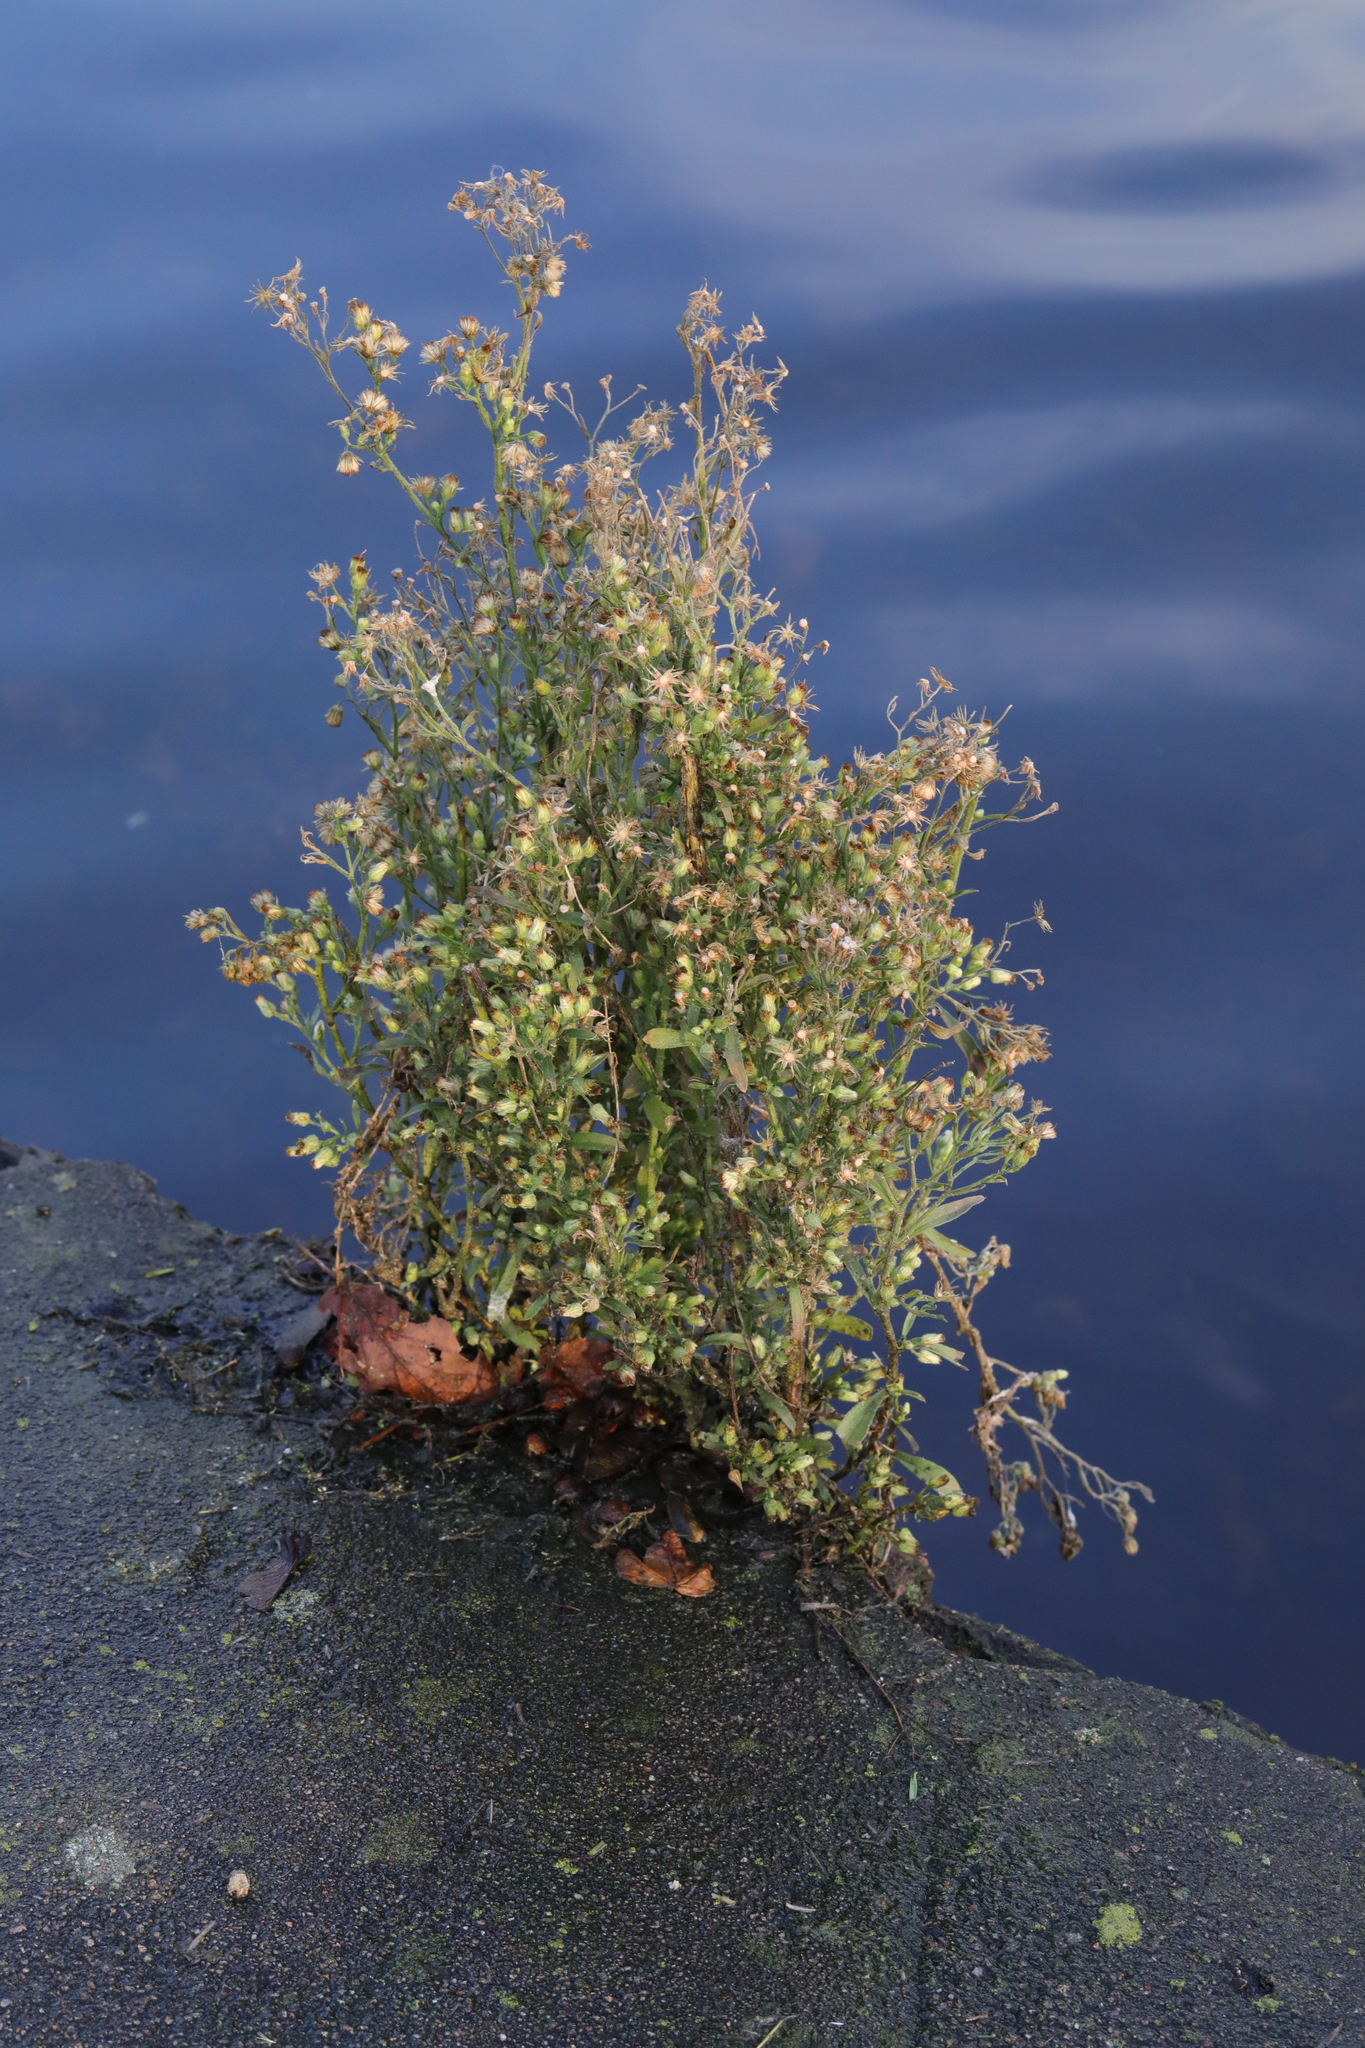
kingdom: Plantae
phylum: Tracheophyta
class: Magnoliopsida
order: Asterales
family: Asteraceae
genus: Erigeron
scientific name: Erigeron canadensis
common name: Canadian fleabane
